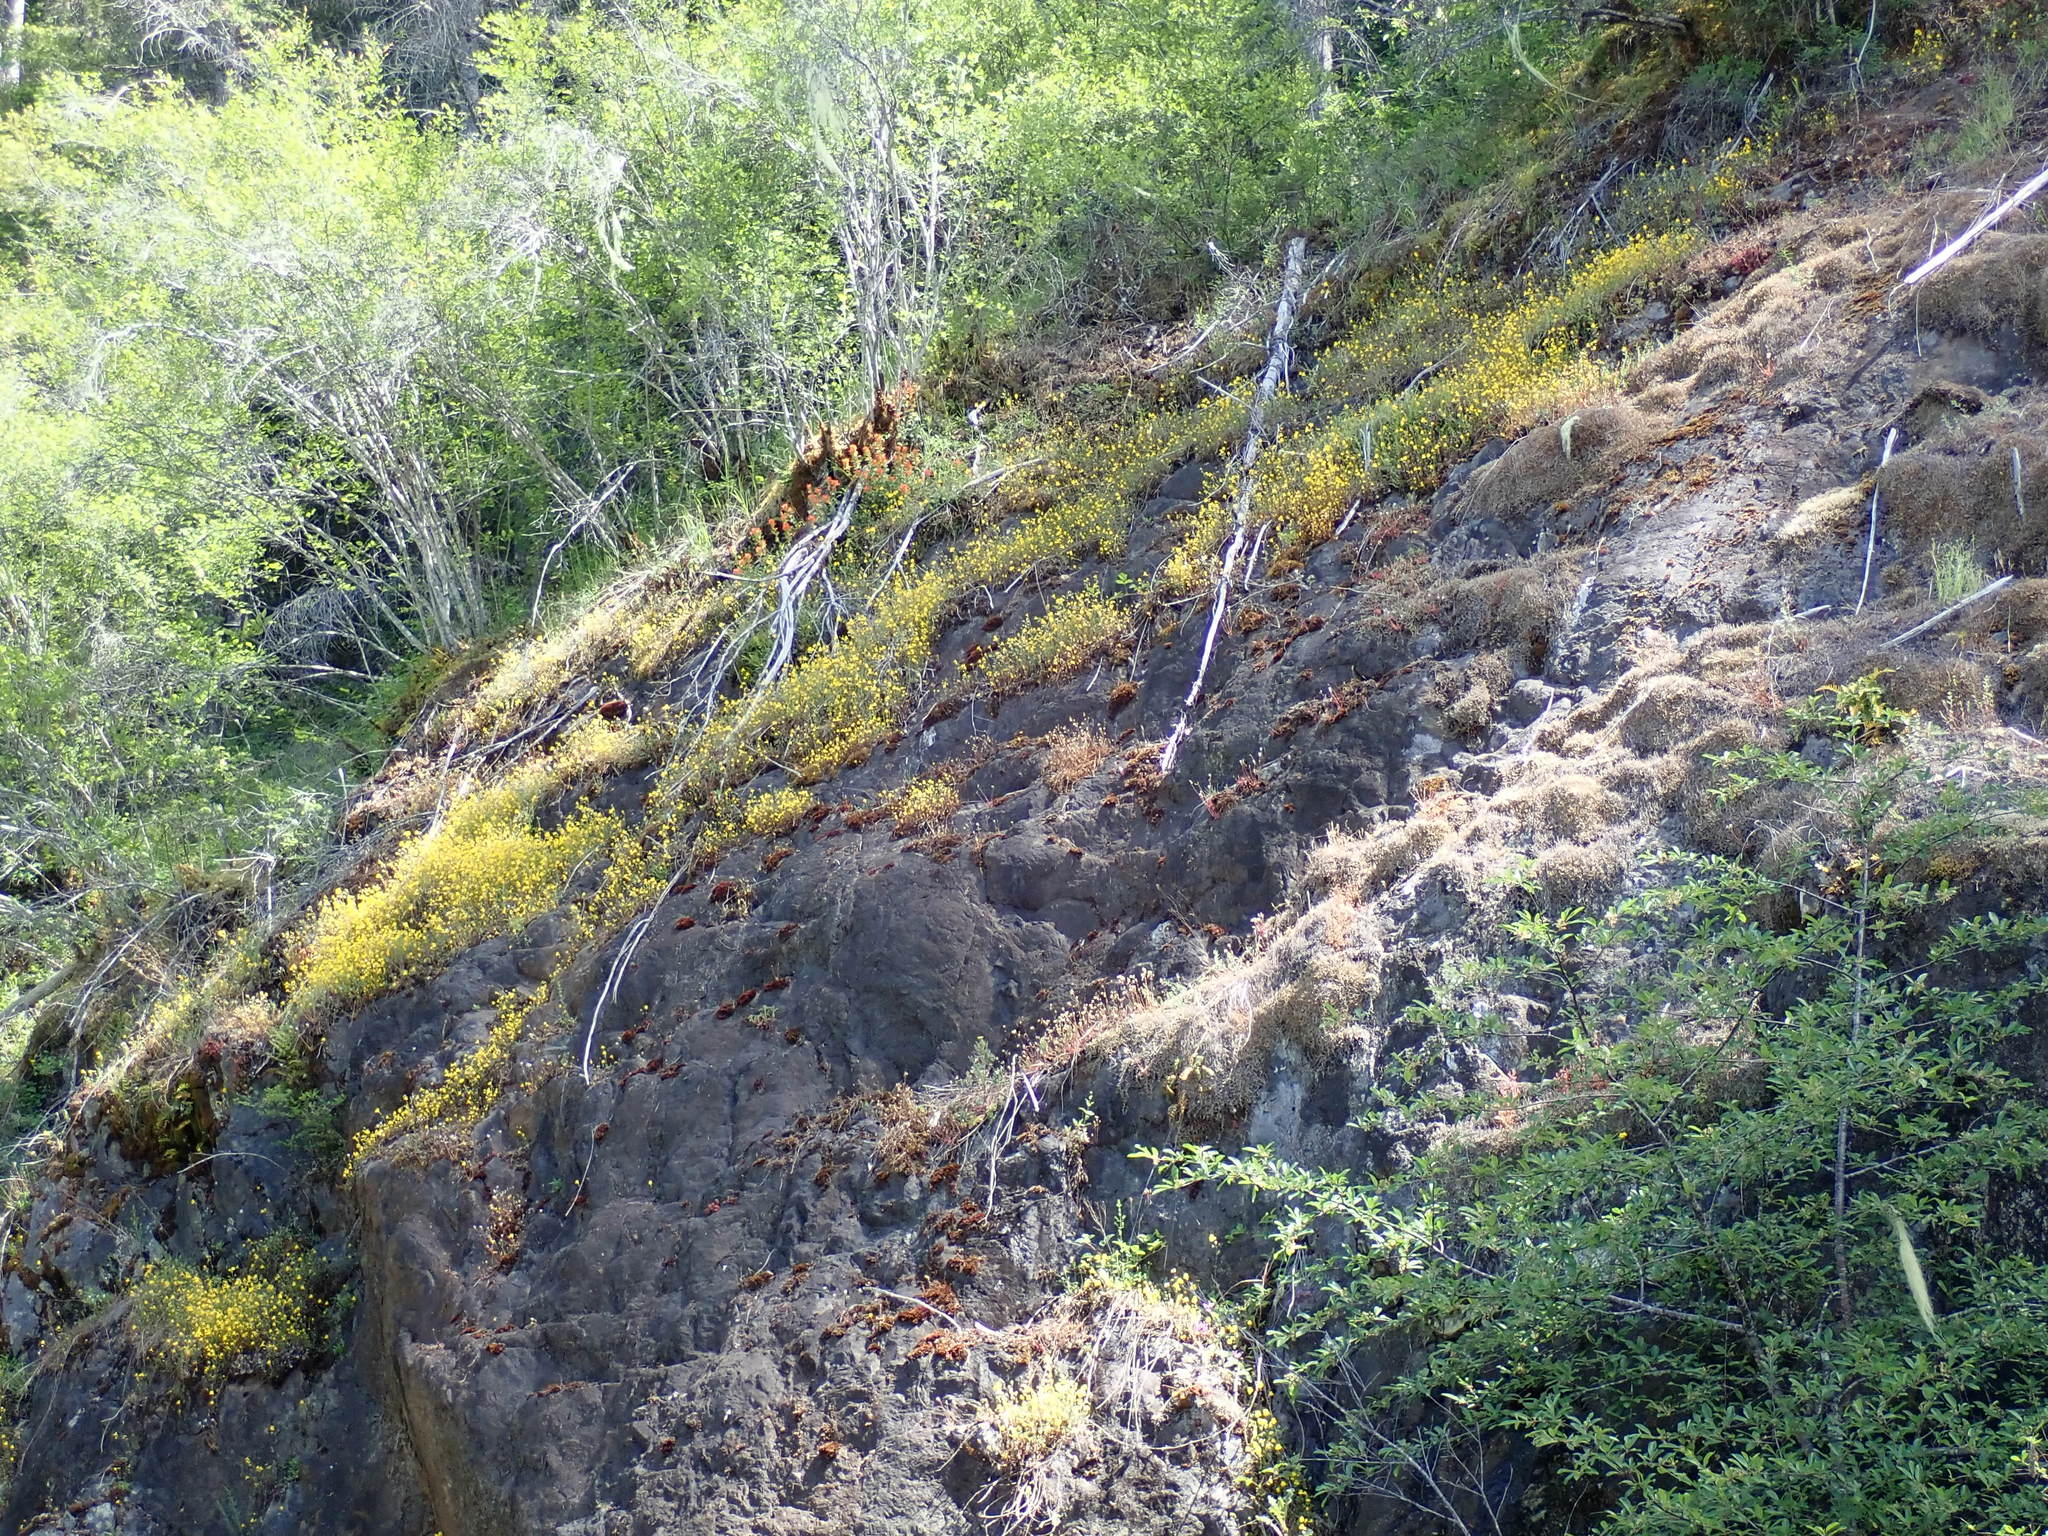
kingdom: Plantae
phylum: Tracheophyta
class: Magnoliopsida
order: Lamiales
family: Phrymaceae
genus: Erythranthe
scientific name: Erythranthe microphylla
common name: Bentham's monkeyflower
